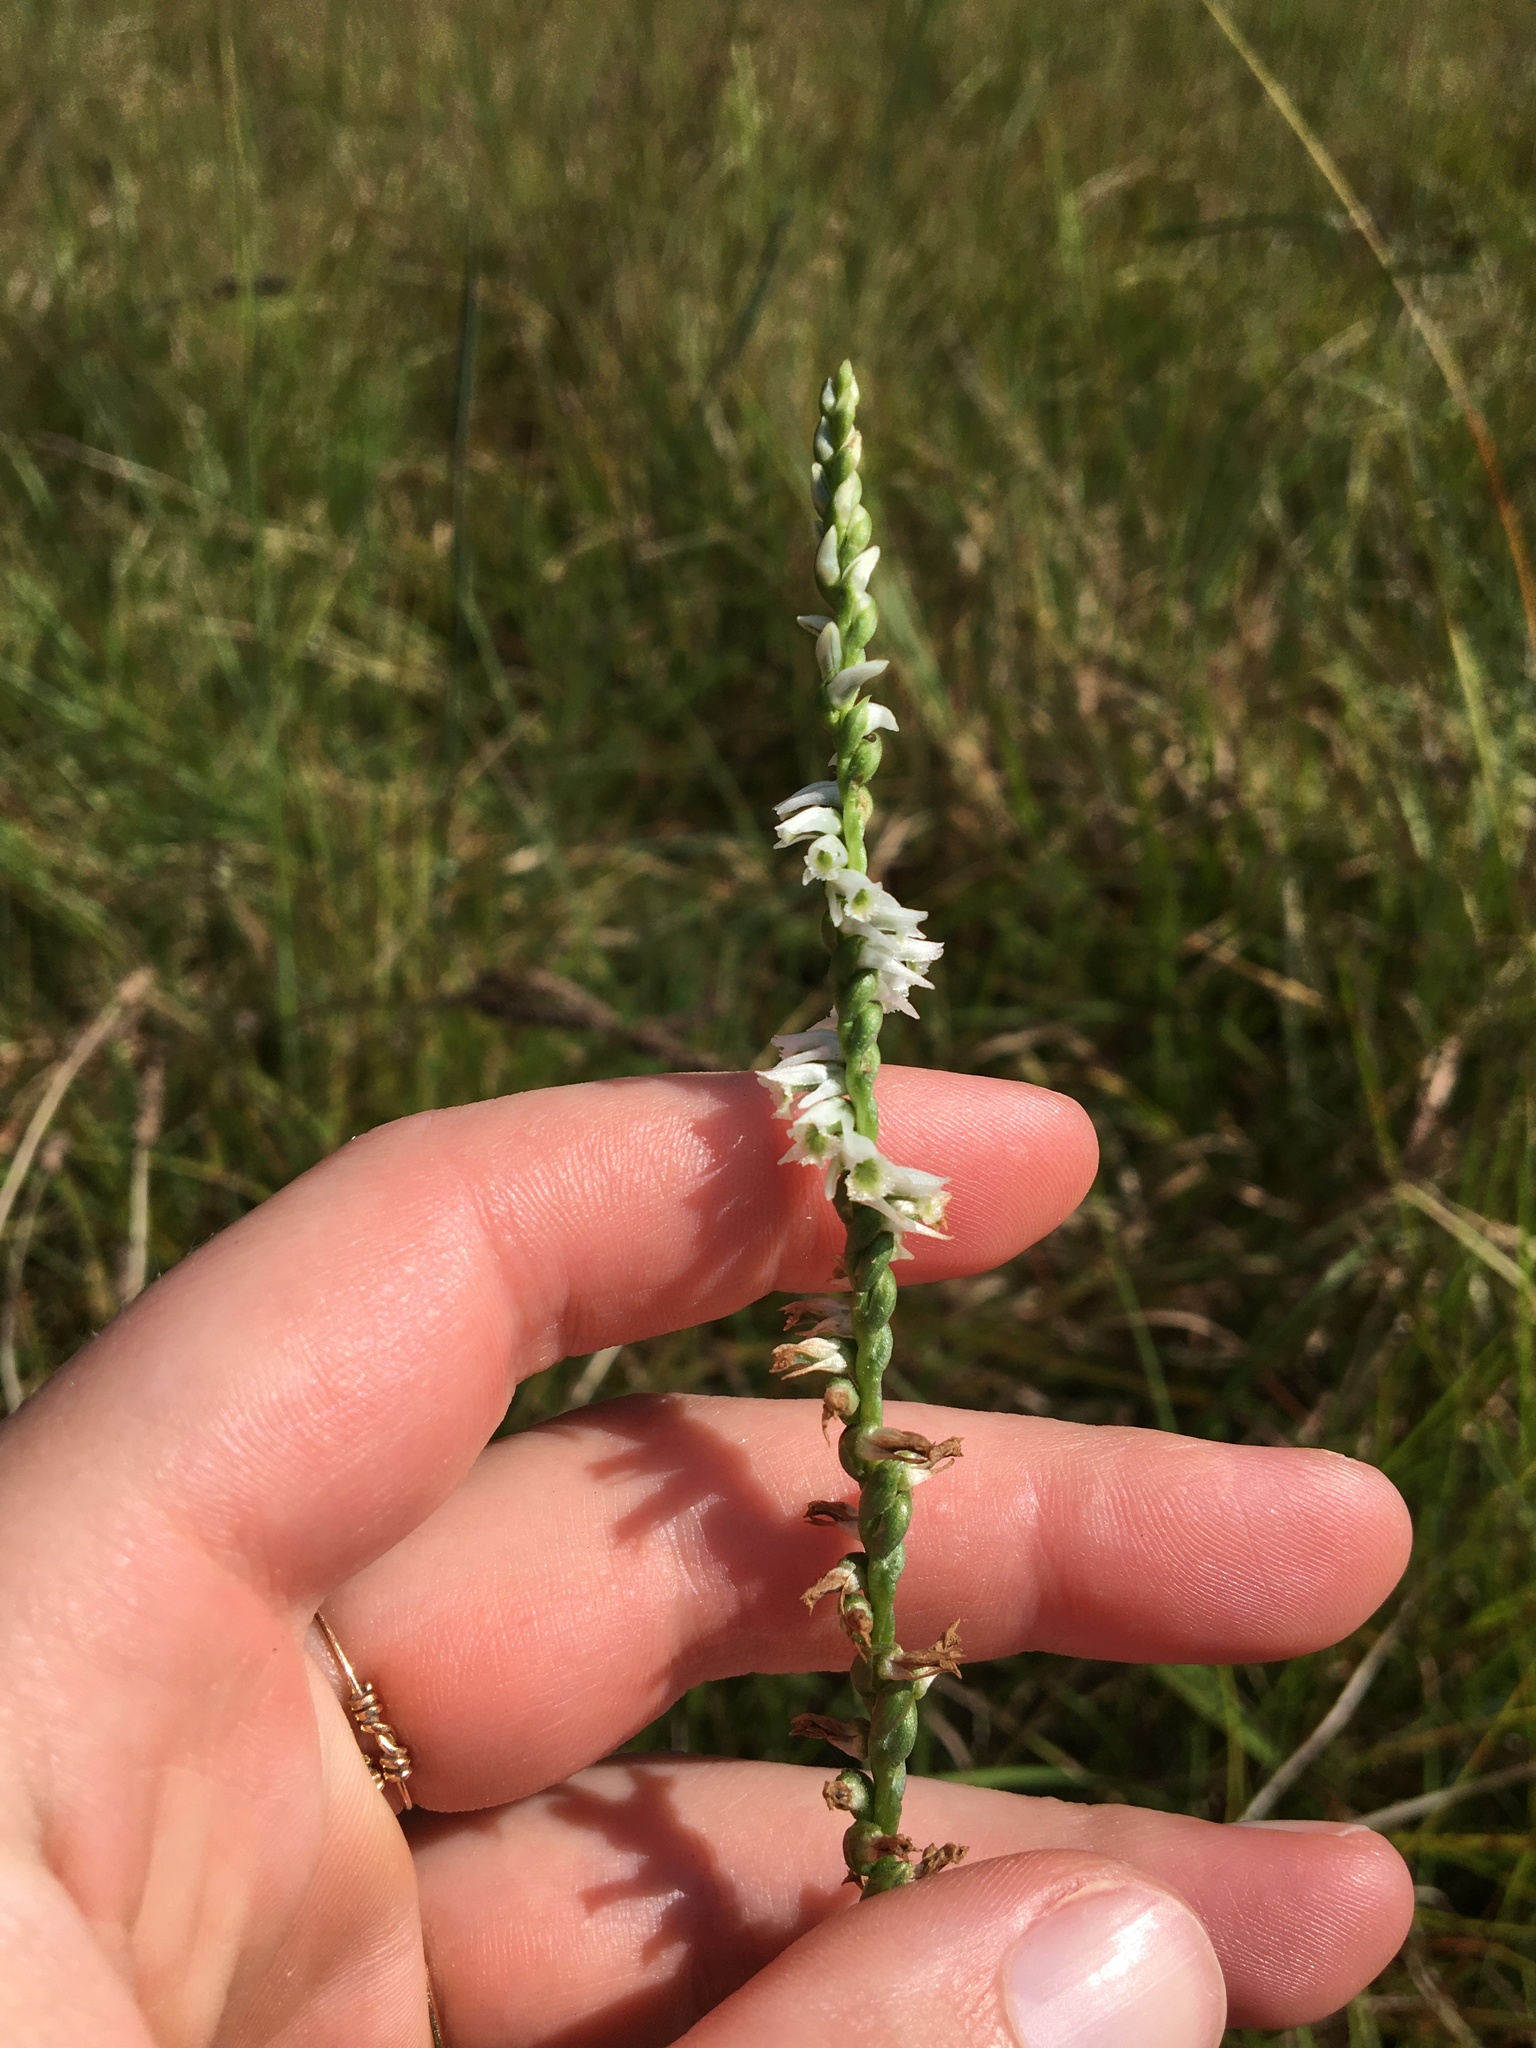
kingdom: Plantae
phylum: Tracheophyta
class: Liliopsida
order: Asparagales
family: Orchidaceae
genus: Spiranthes
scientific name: Spiranthes lacera
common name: Northern slender ladies'-tresses
